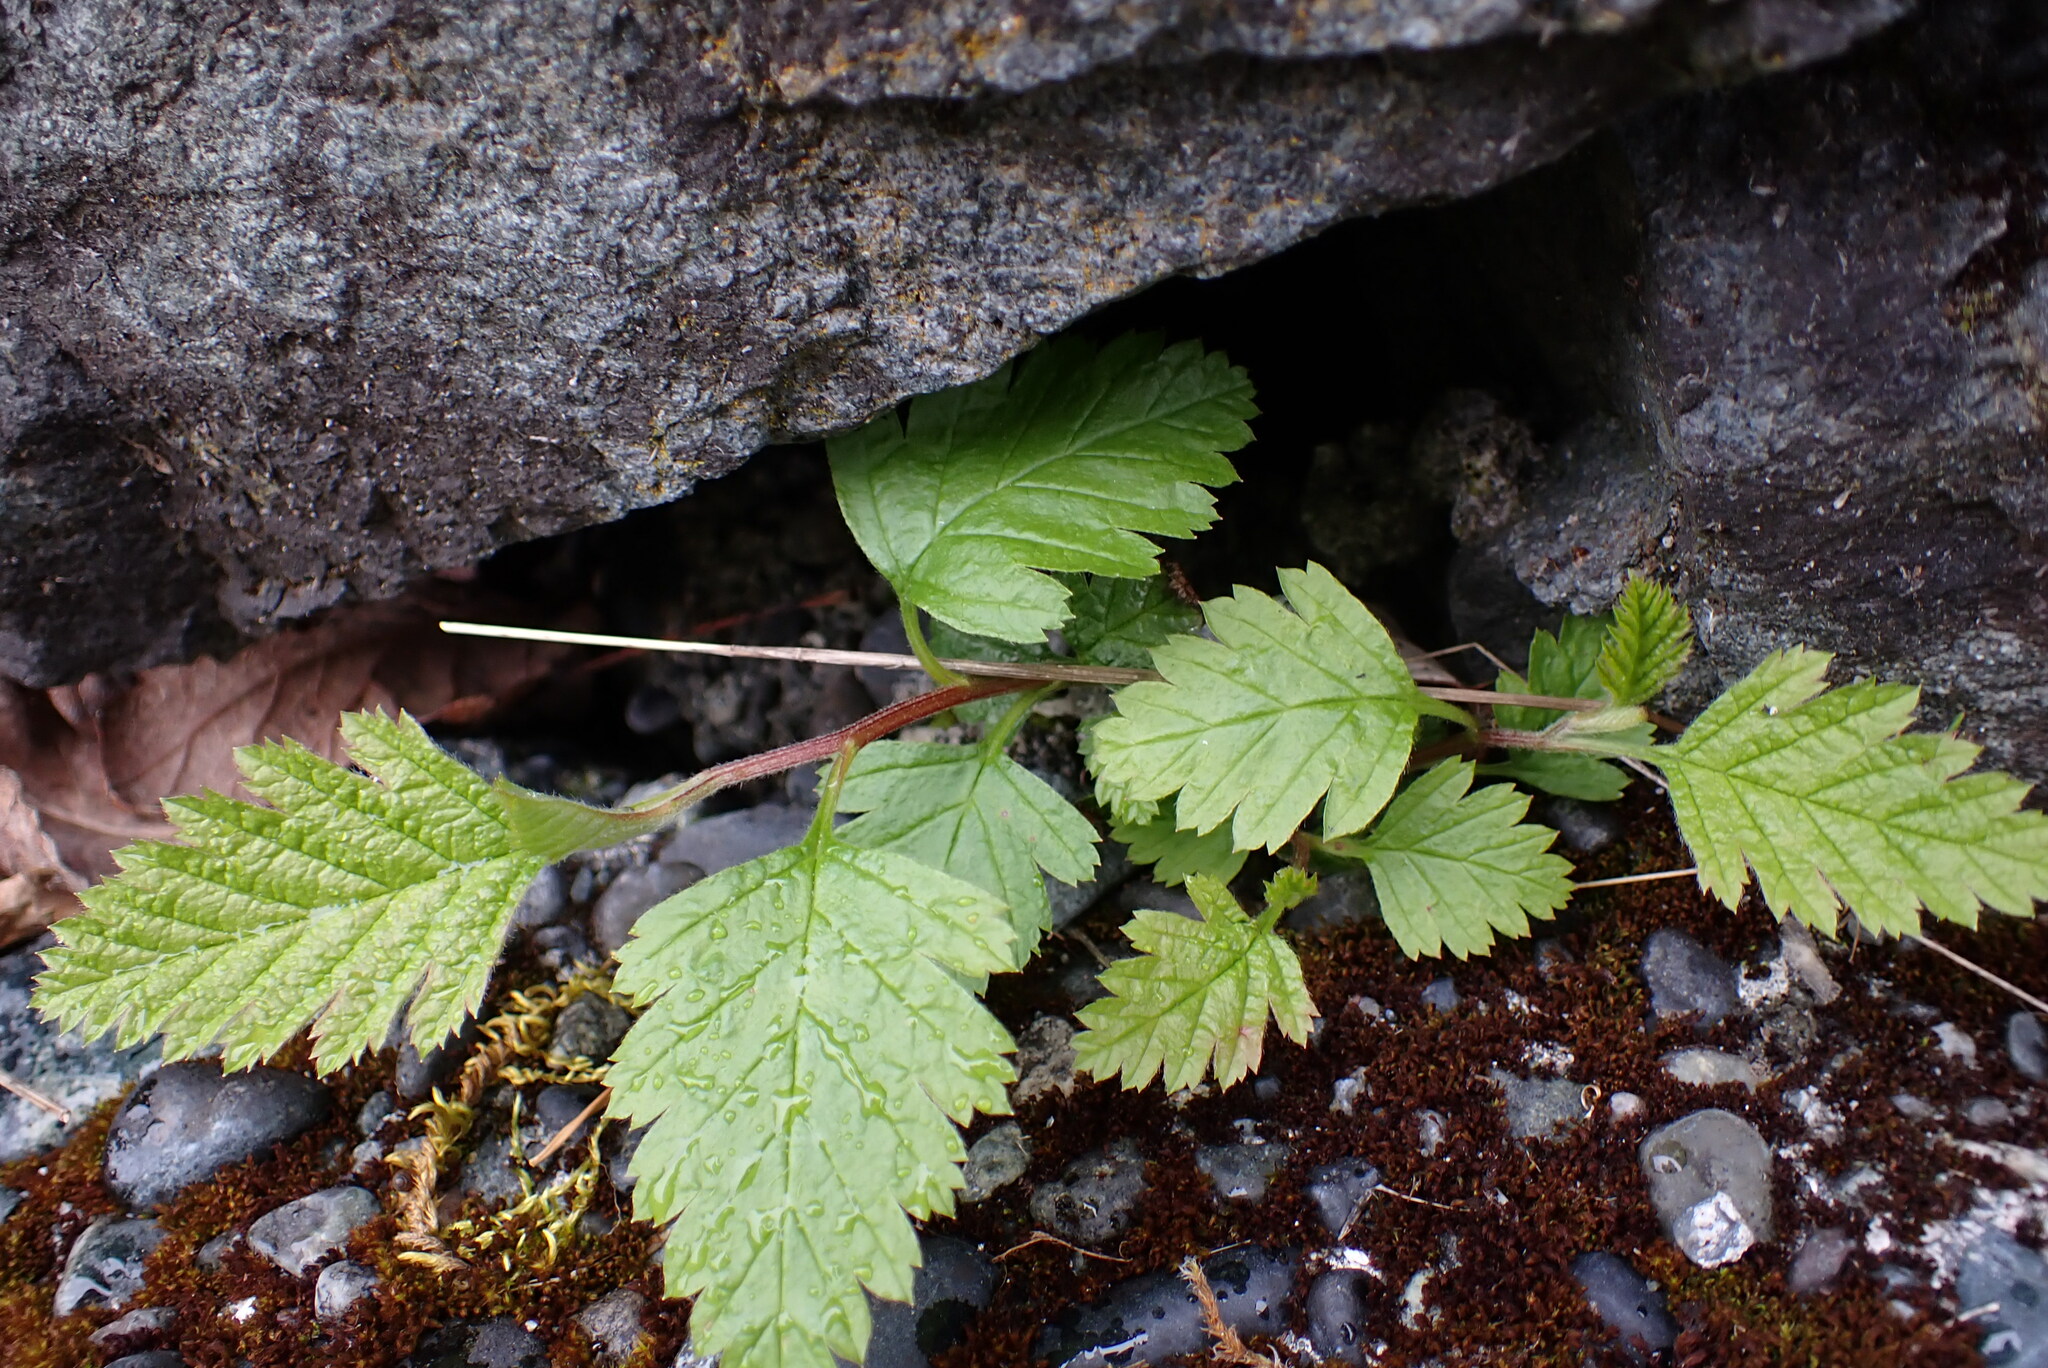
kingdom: Plantae
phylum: Tracheophyta
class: Magnoliopsida
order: Rosales
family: Rosaceae
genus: Holodiscus
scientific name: Holodiscus discolor
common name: Oceanspray
